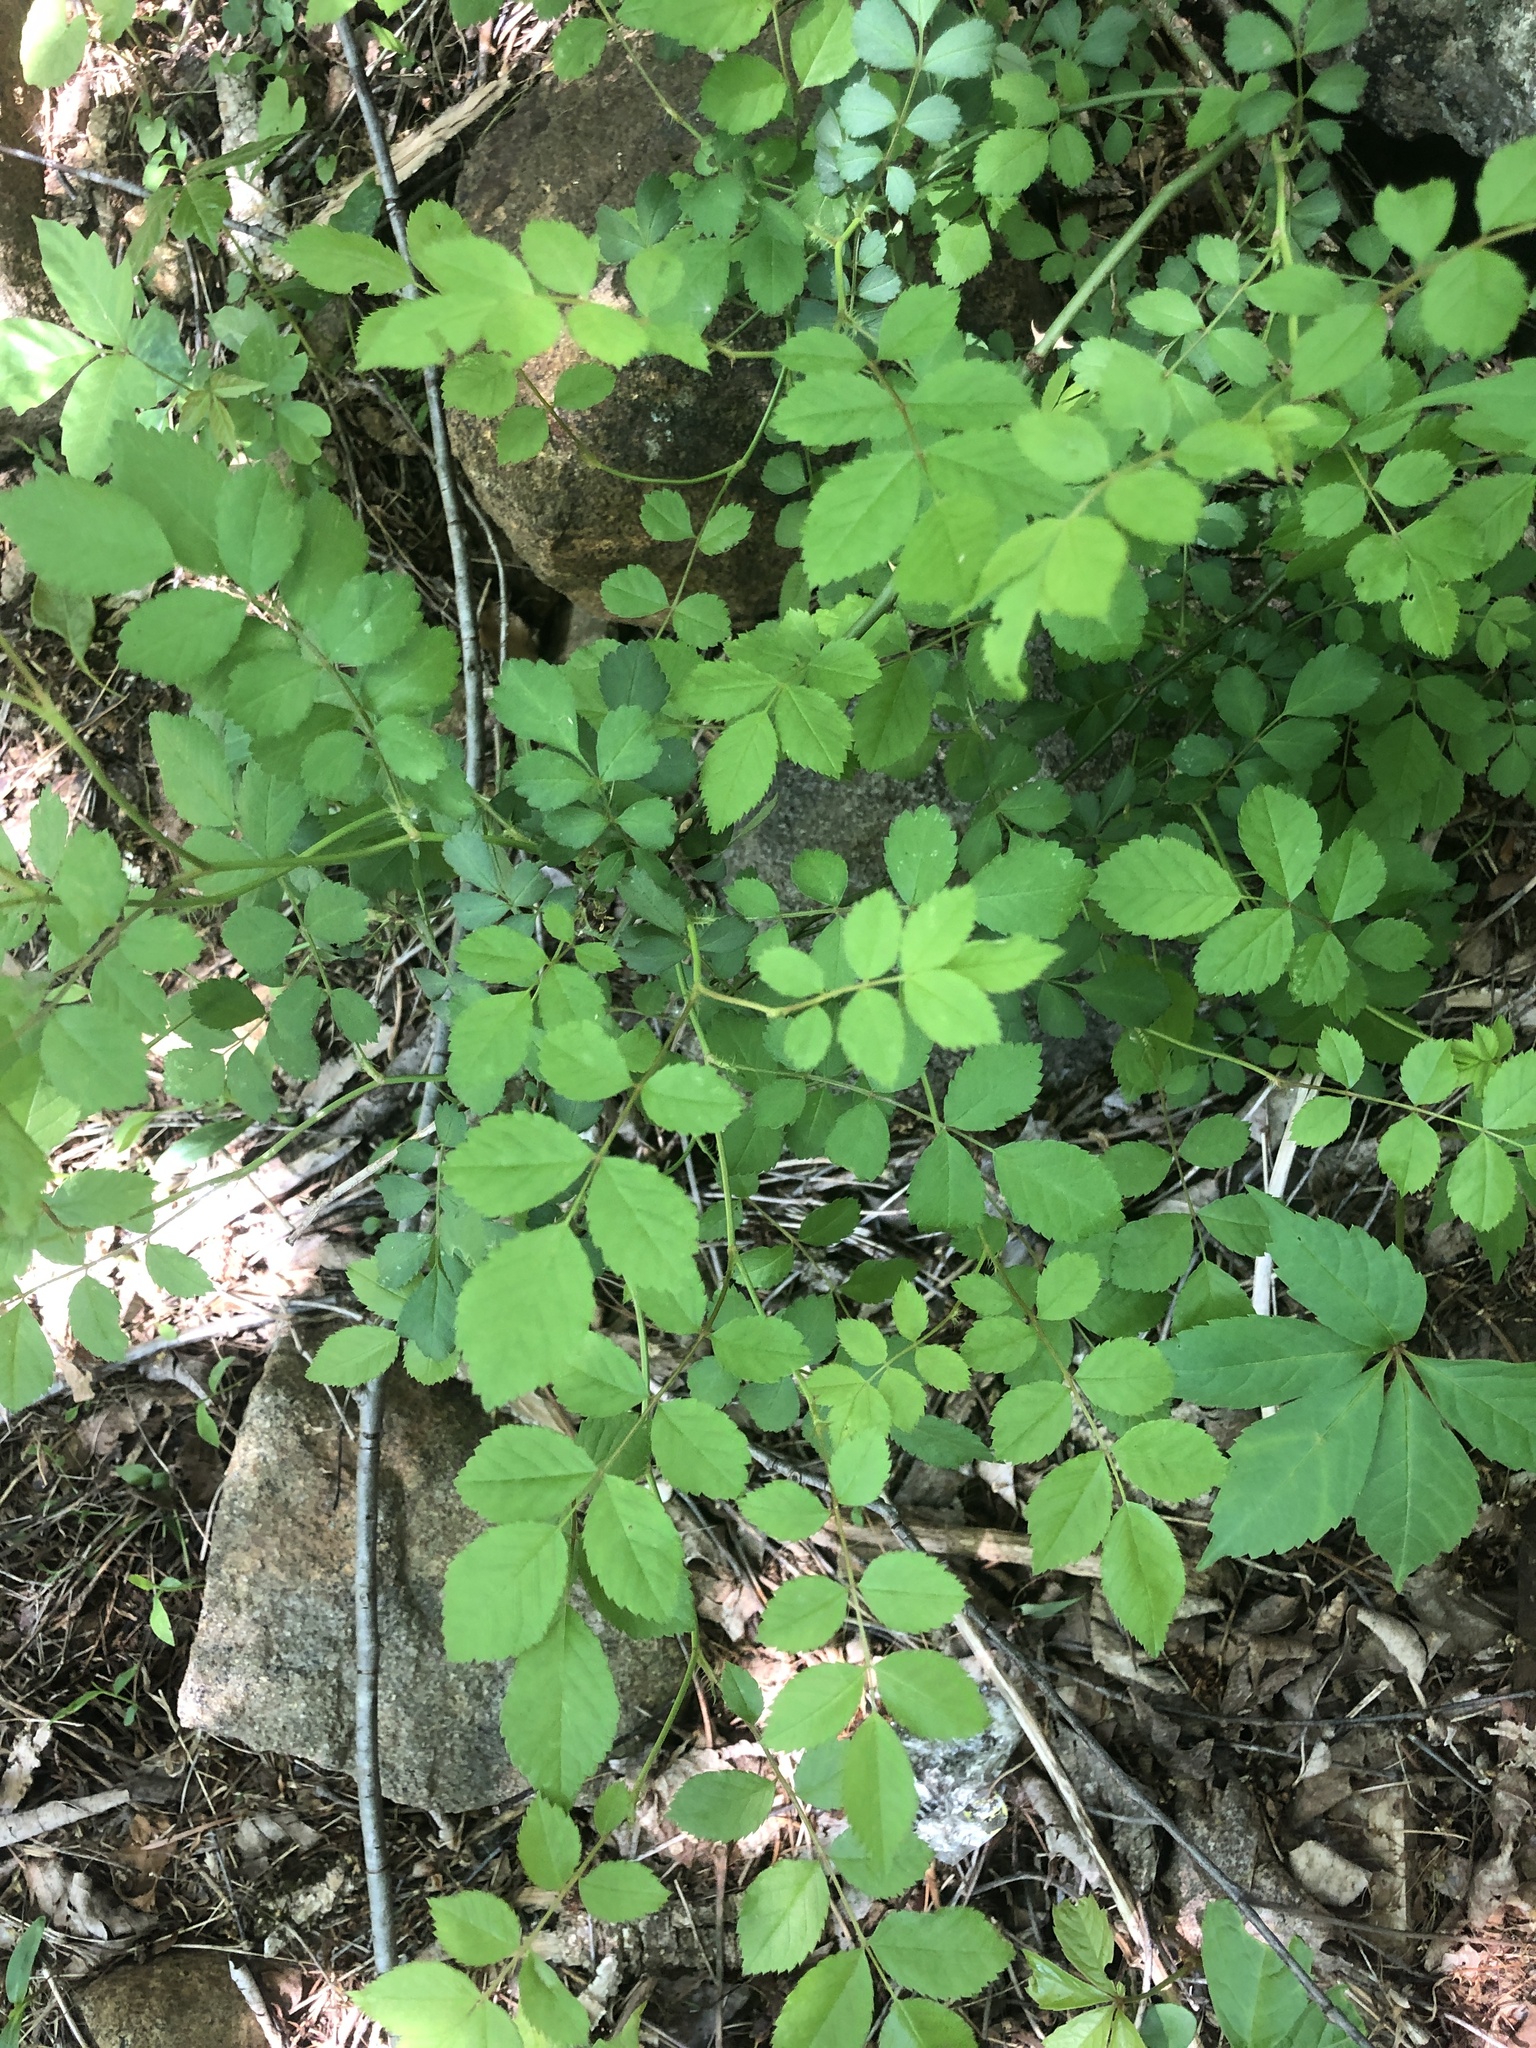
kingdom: Plantae
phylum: Tracheophyta
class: Magnoliopsida
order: Rosales
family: Rosaceae
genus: Rosa
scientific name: Rosa multiflora
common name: Multiflora rose
